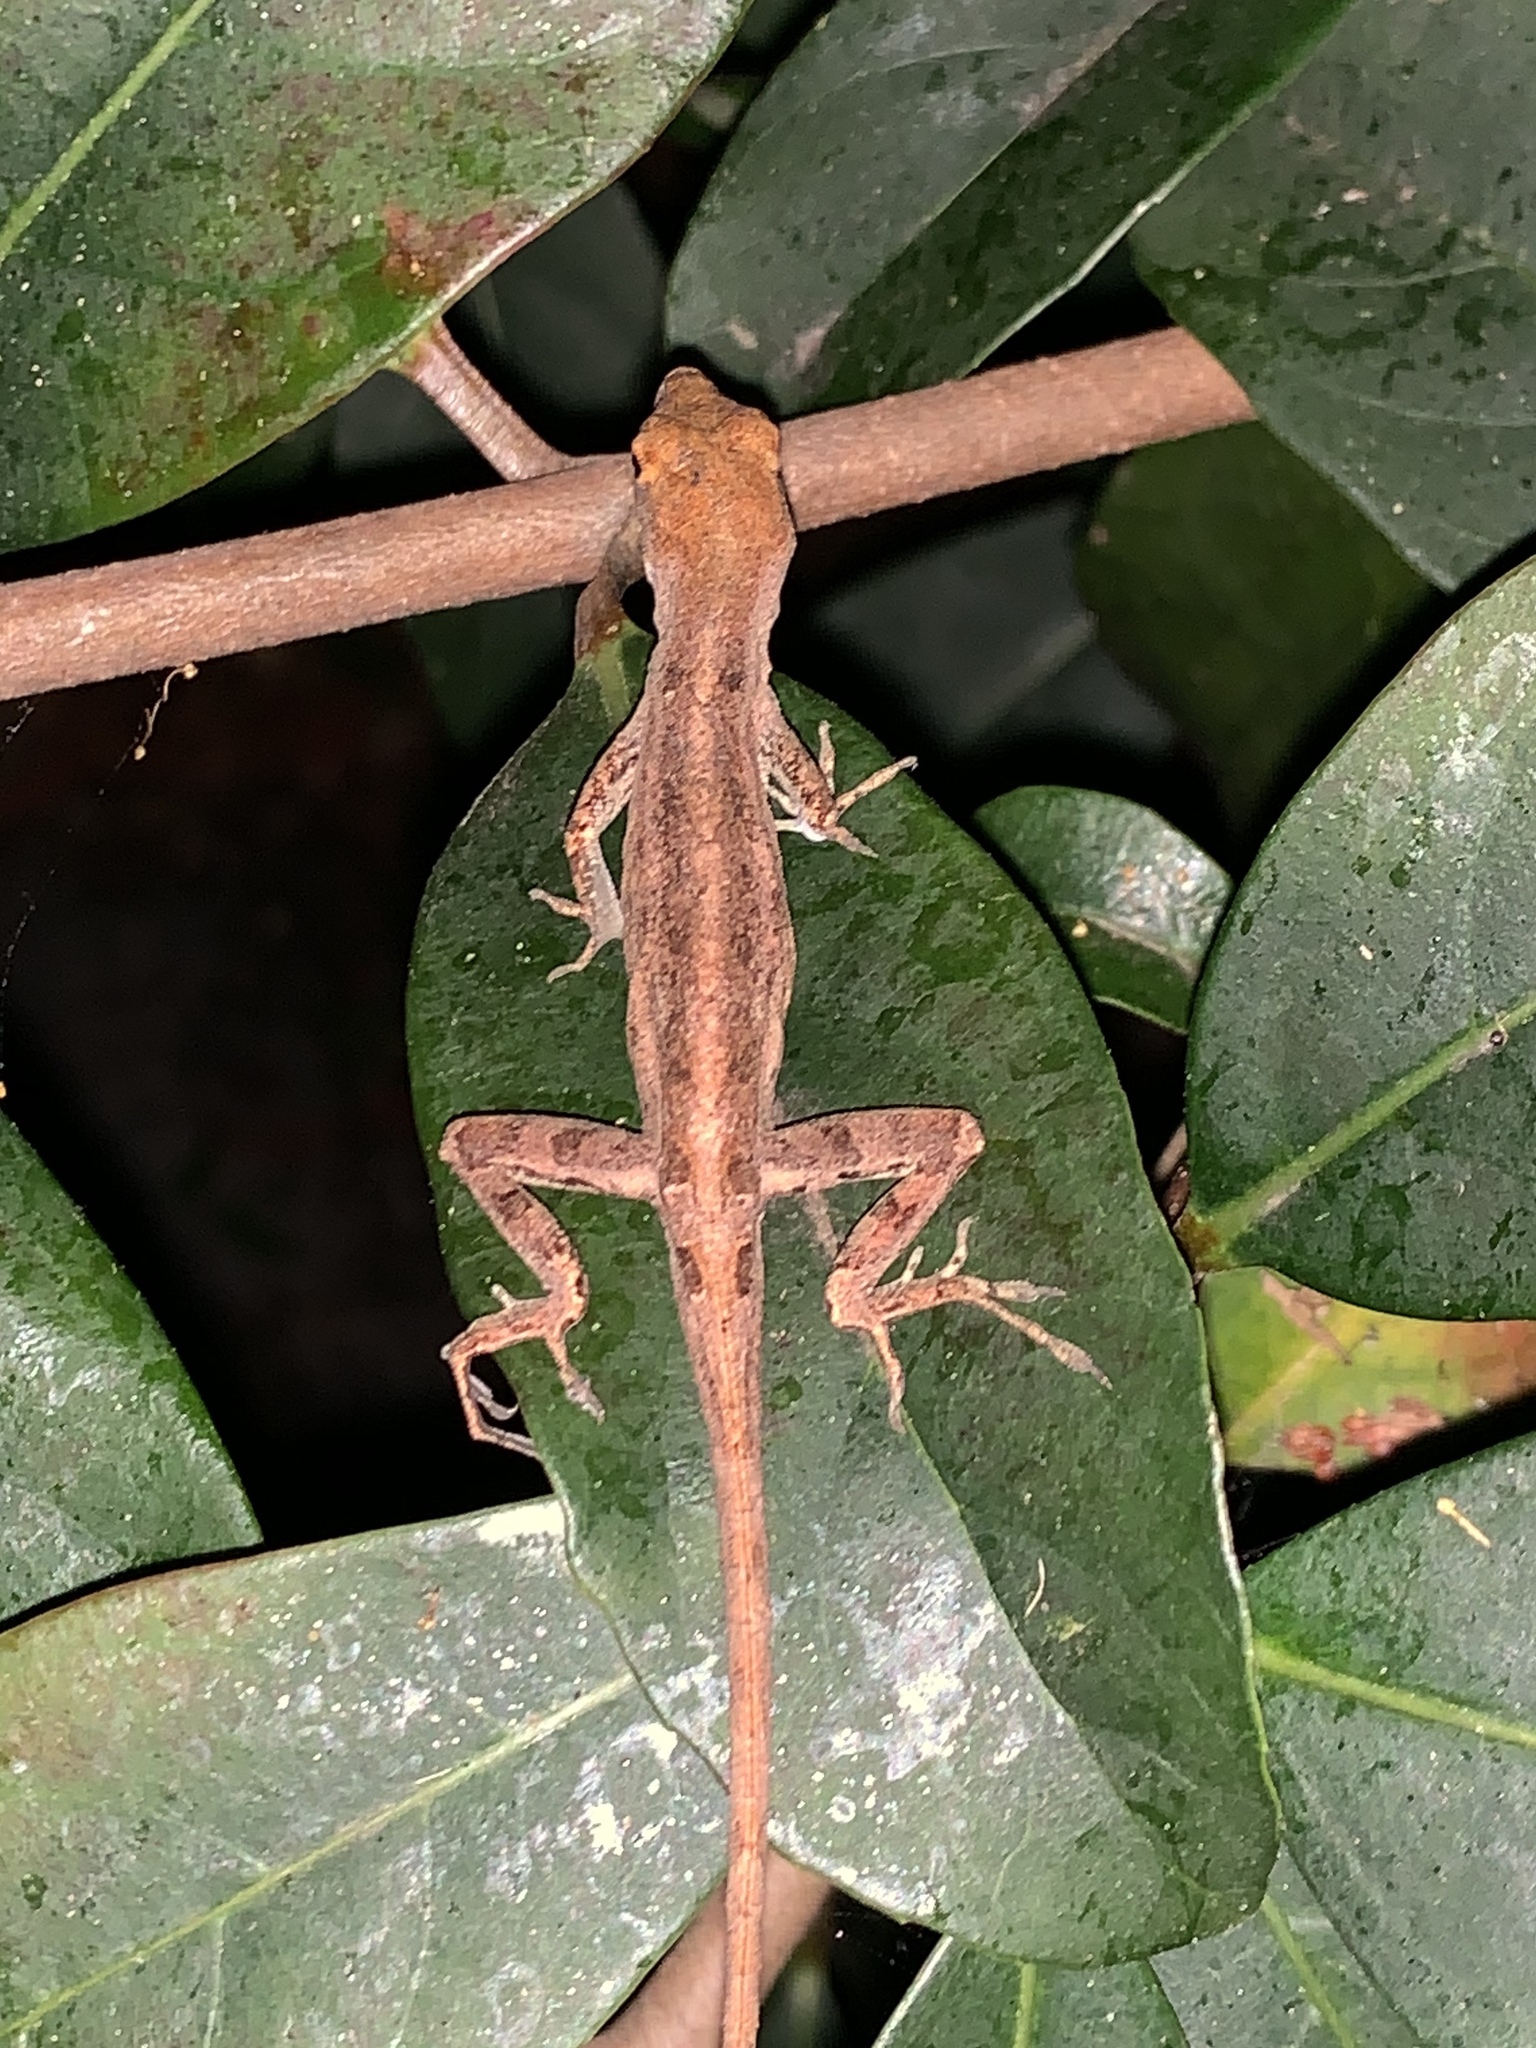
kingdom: Animalia
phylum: Chordata
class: Squamata
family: Dactyloidae
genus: Anolis
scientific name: Anolis sagrei
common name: Brown anole
